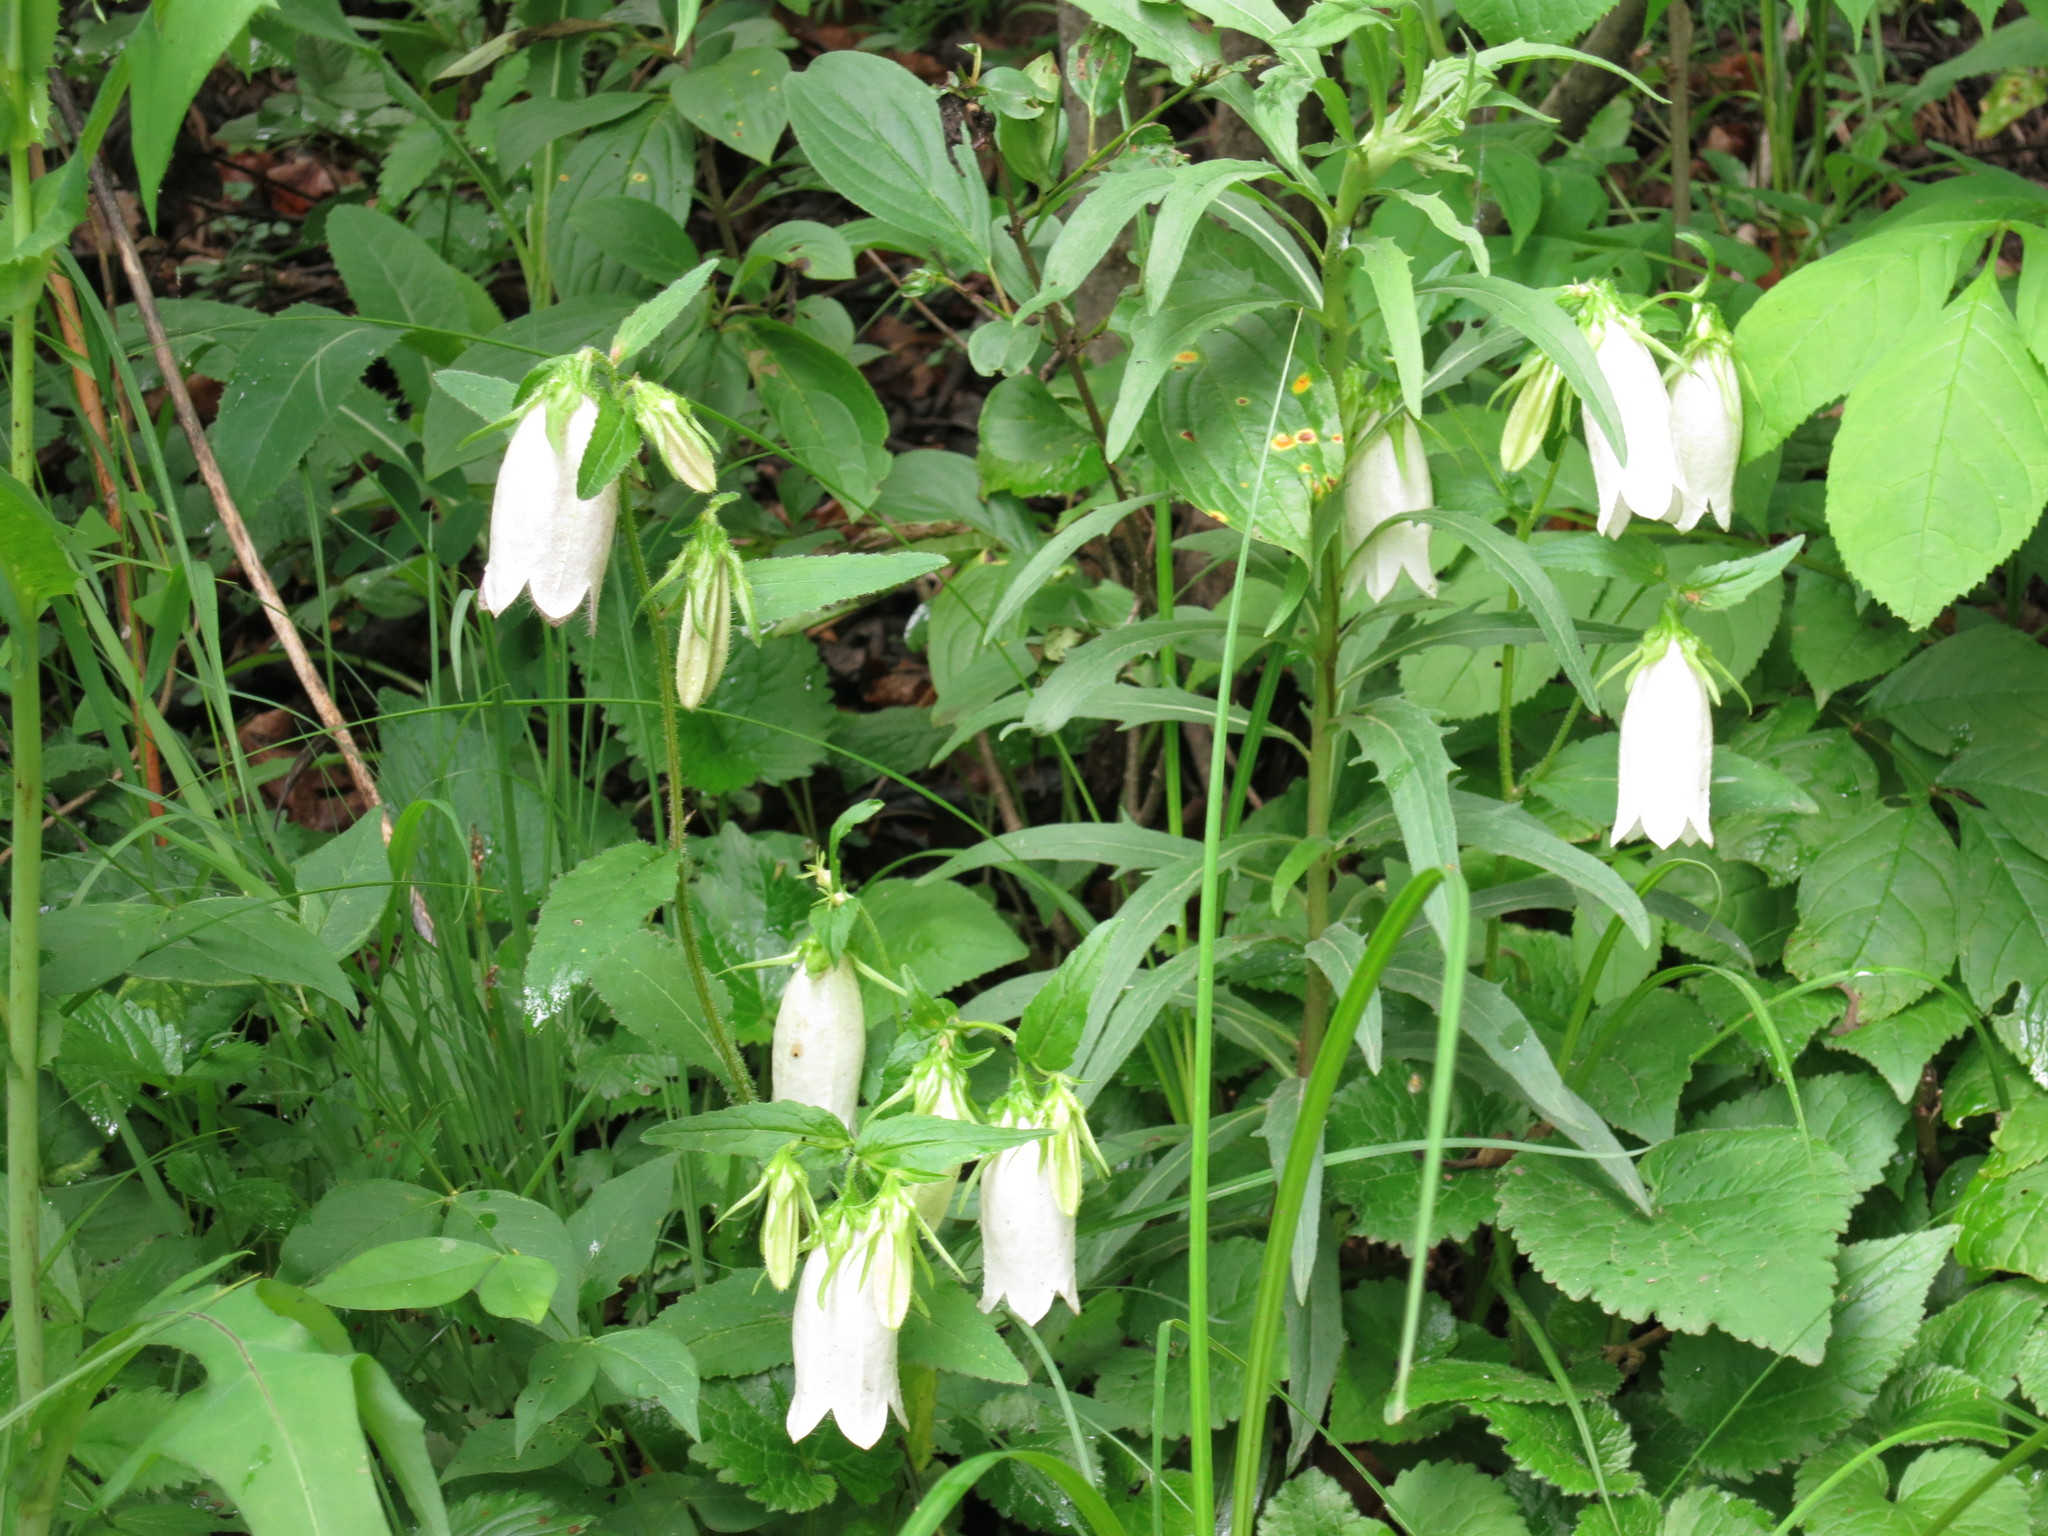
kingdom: Plantae
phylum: Tracheophyta
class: Magnoliopsida
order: Asterales
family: Campanulaceae
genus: Campanula
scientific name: Campanula punctata
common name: Spotted bellflower
